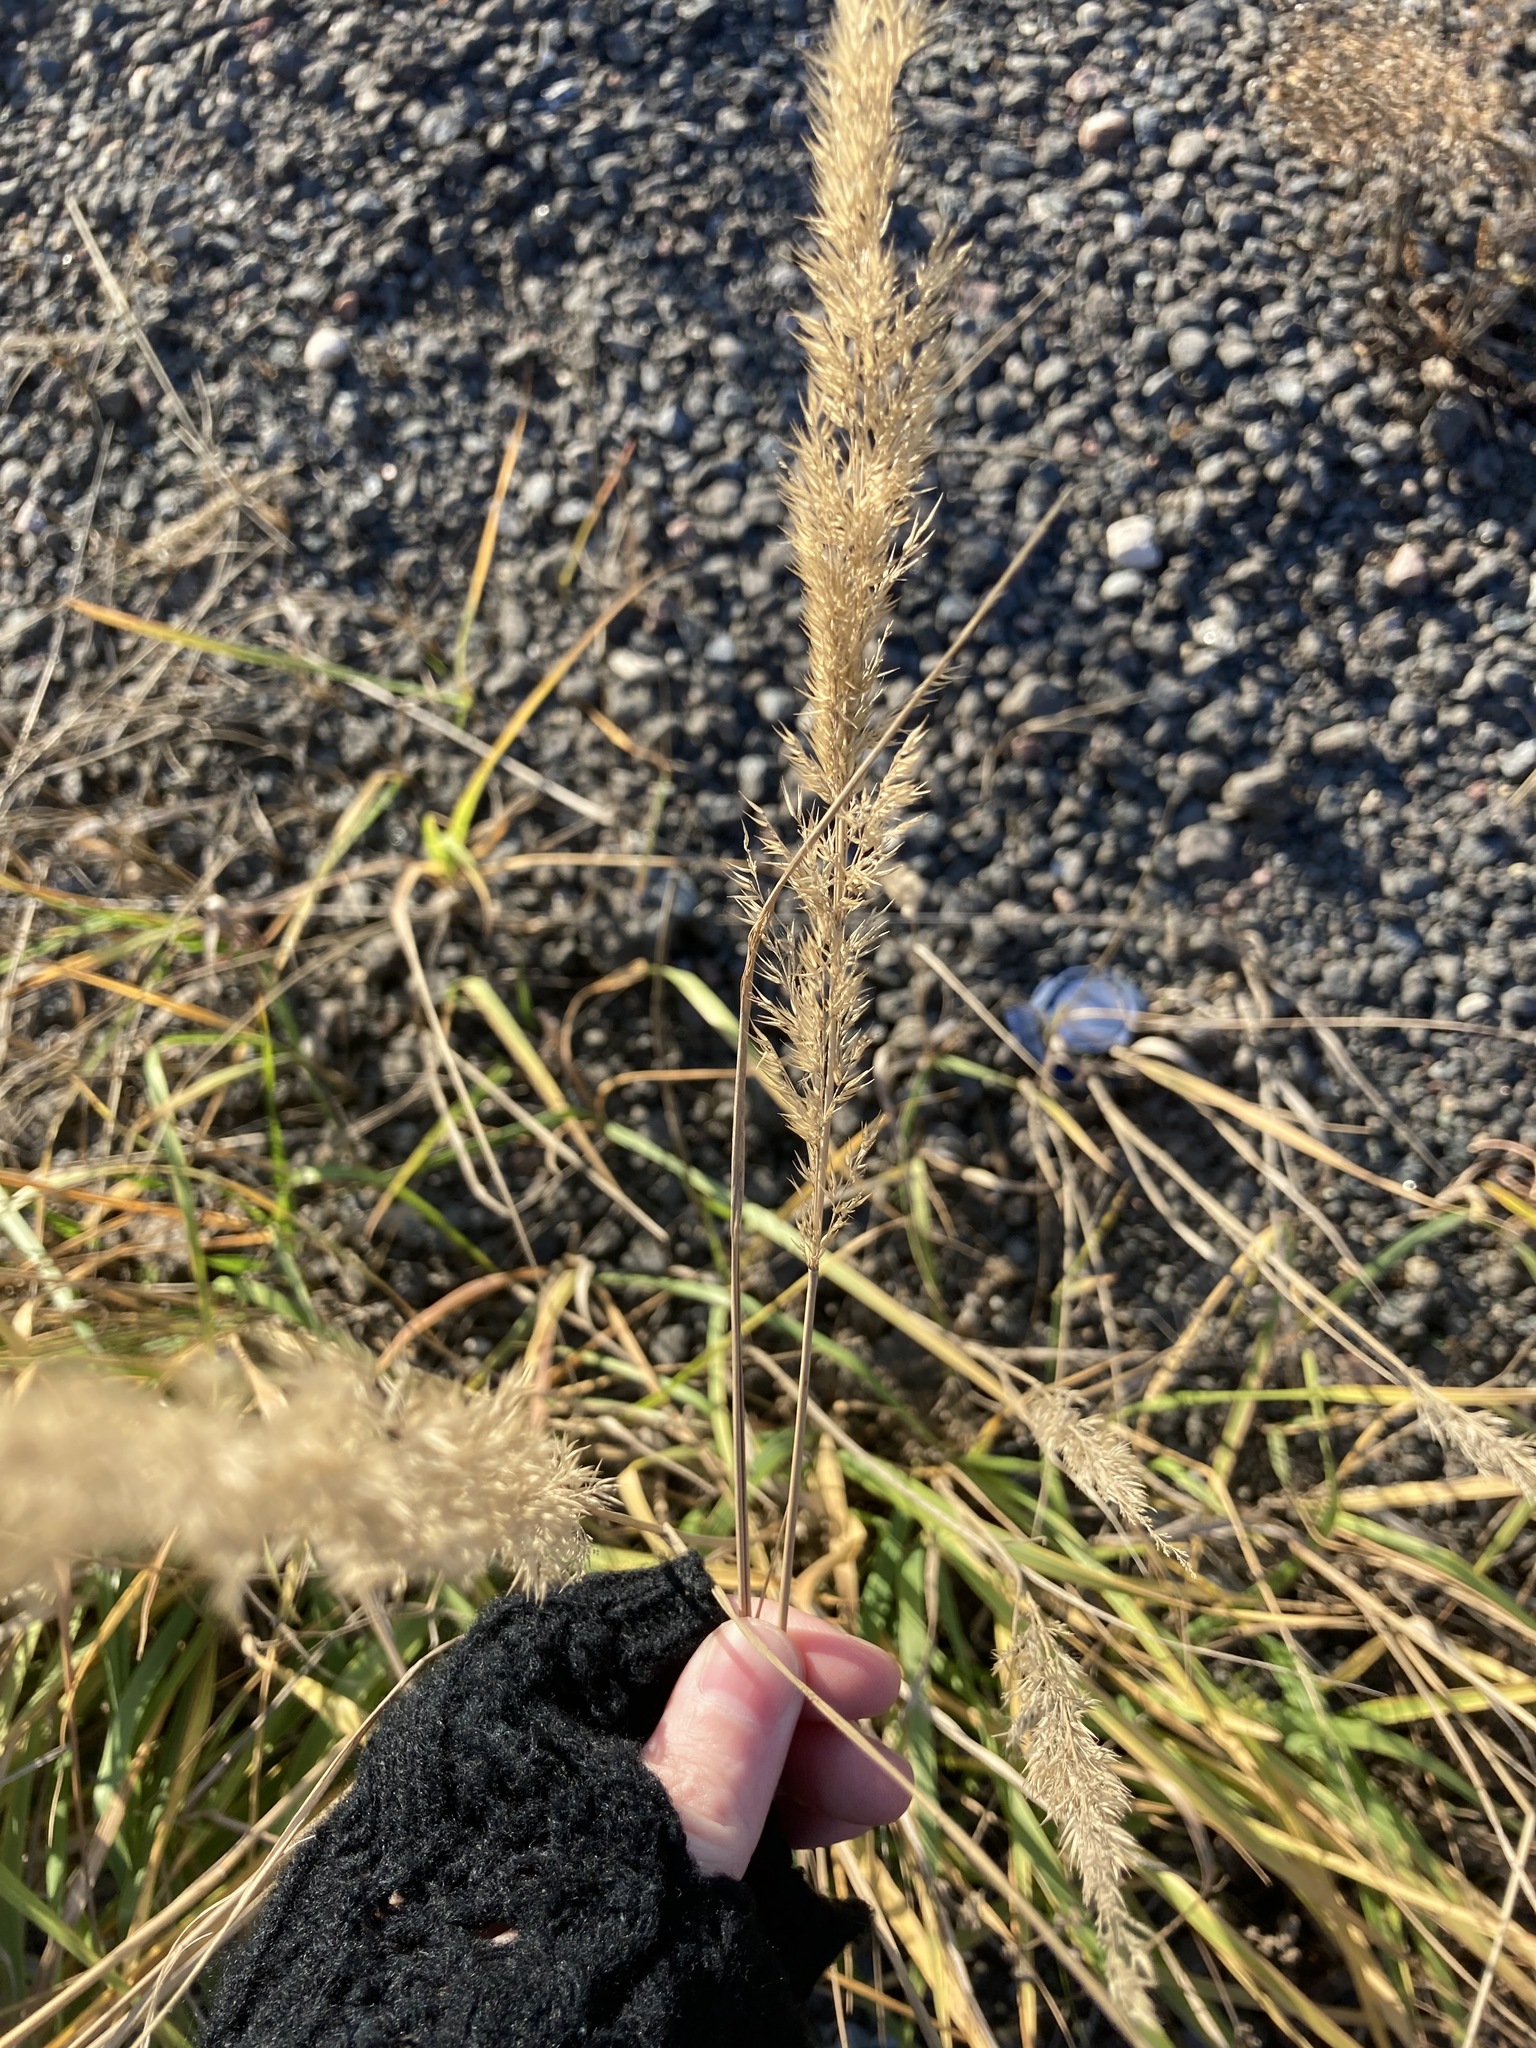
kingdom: Plantae
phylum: Tracheophyta
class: Liliopsida
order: Poales
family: Poaceae
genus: Calamagrostis
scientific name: Calamagrostis epigejos
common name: Wood small-reed
